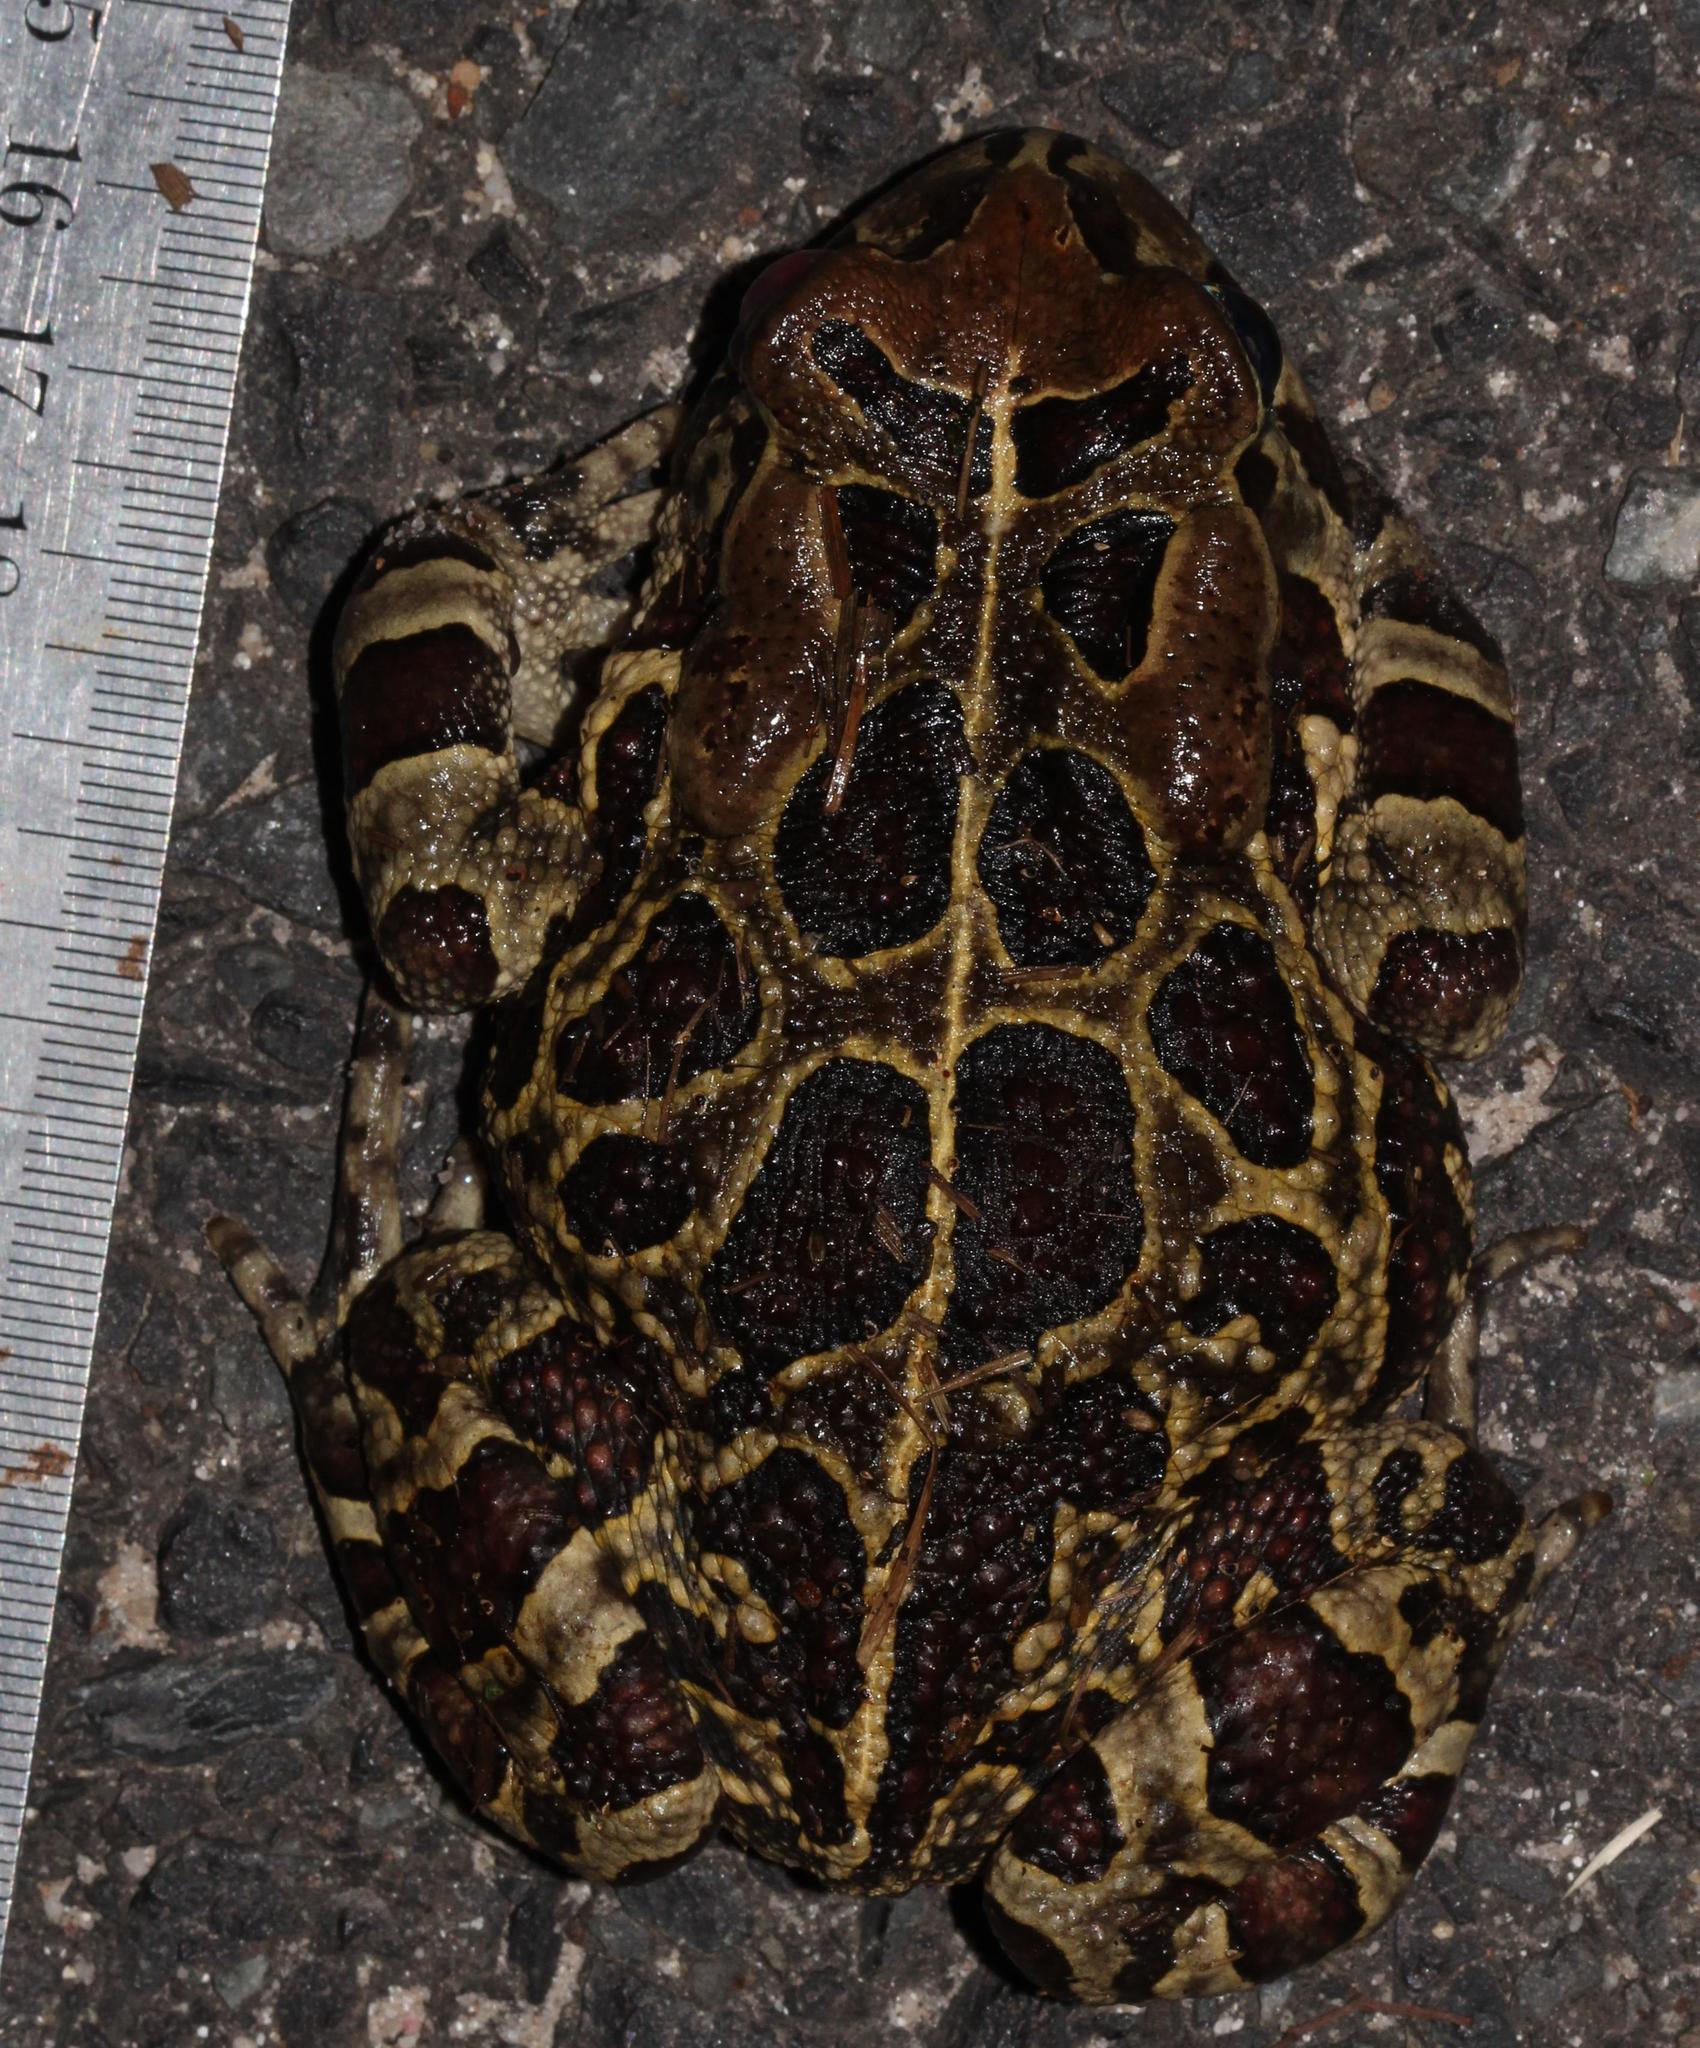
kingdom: Animalia
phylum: Chordata
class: Amphibia
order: Anura
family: Bufonidae
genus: Sclerophrys
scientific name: Sclerophrys pantherina
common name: Panther toad
